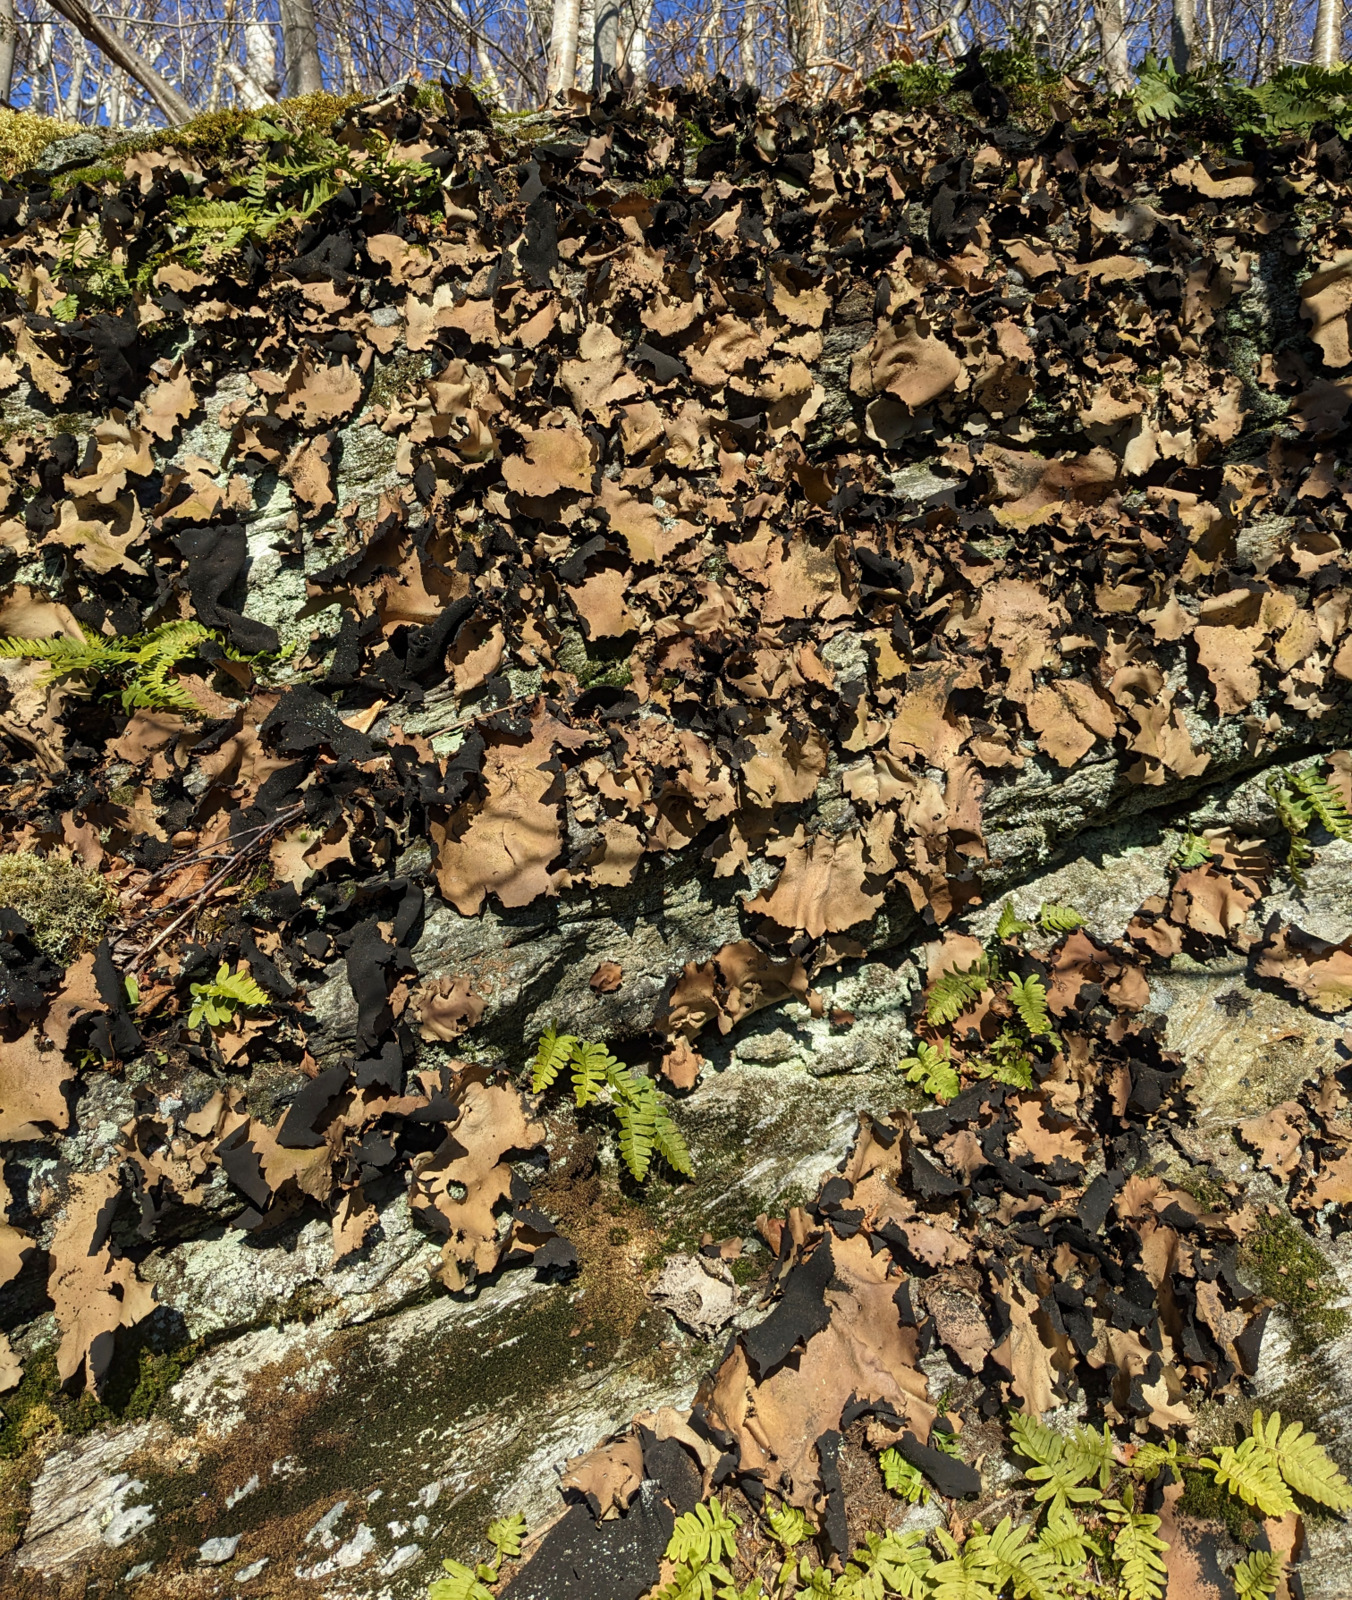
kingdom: Fungi
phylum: Ascomycota
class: Lecanoromycetes
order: Umbilicariales
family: Umbilicariaceae
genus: Umbilicaria
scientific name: Umbilicaria mammulata
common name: Smooth rock tripe
